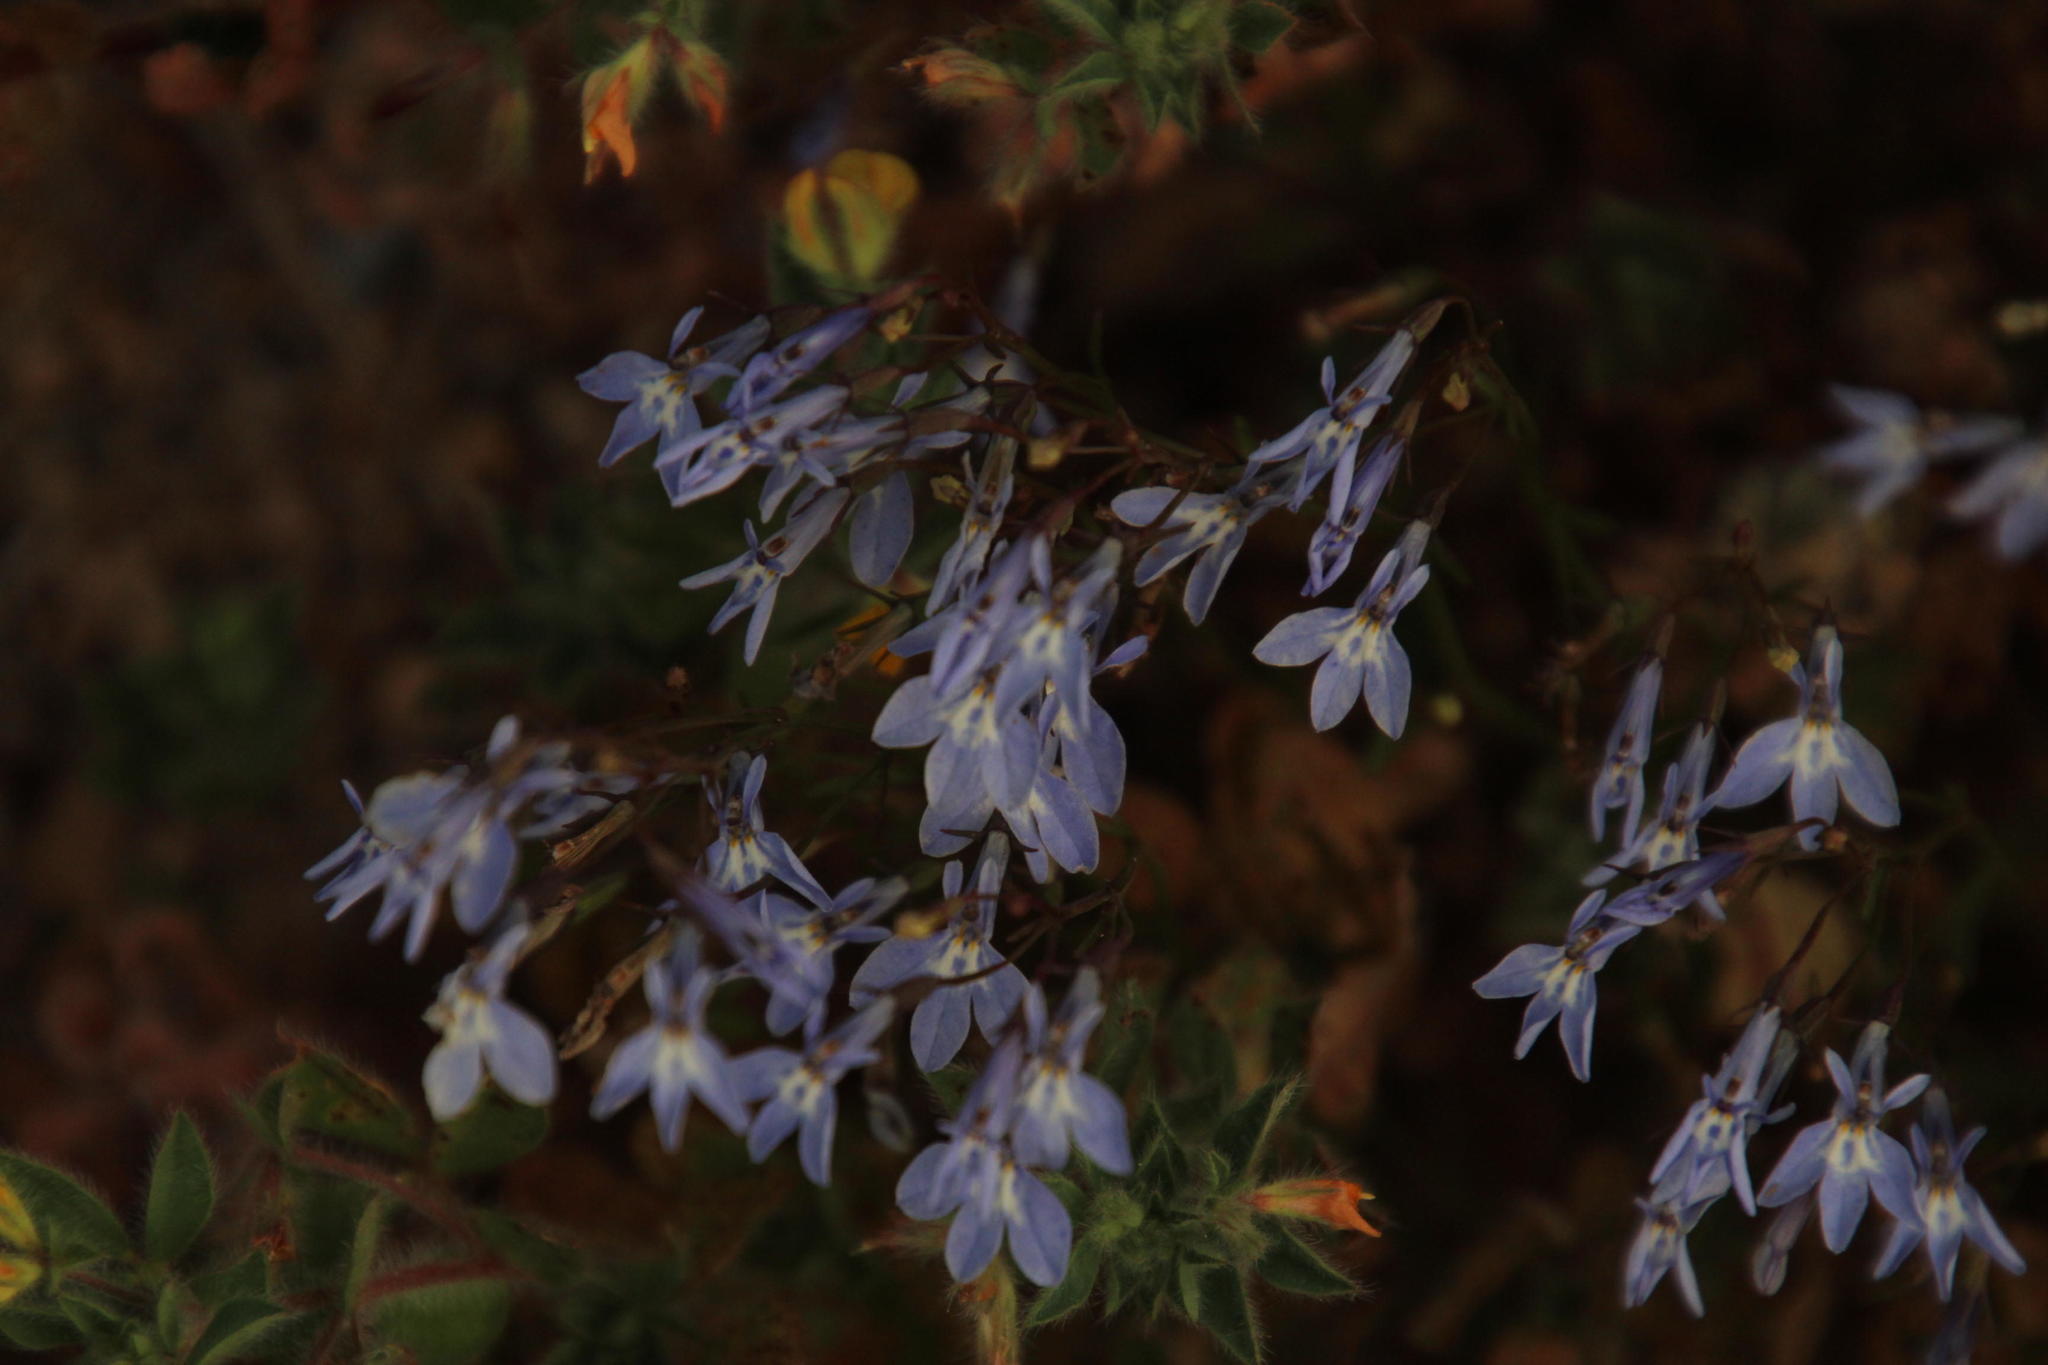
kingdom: Plantae
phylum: Tracheophyta
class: Magnoliopsida
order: Asterales
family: Campanulaceae
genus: Lobelia
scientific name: Lobelia erinus
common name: Edging lobelia
